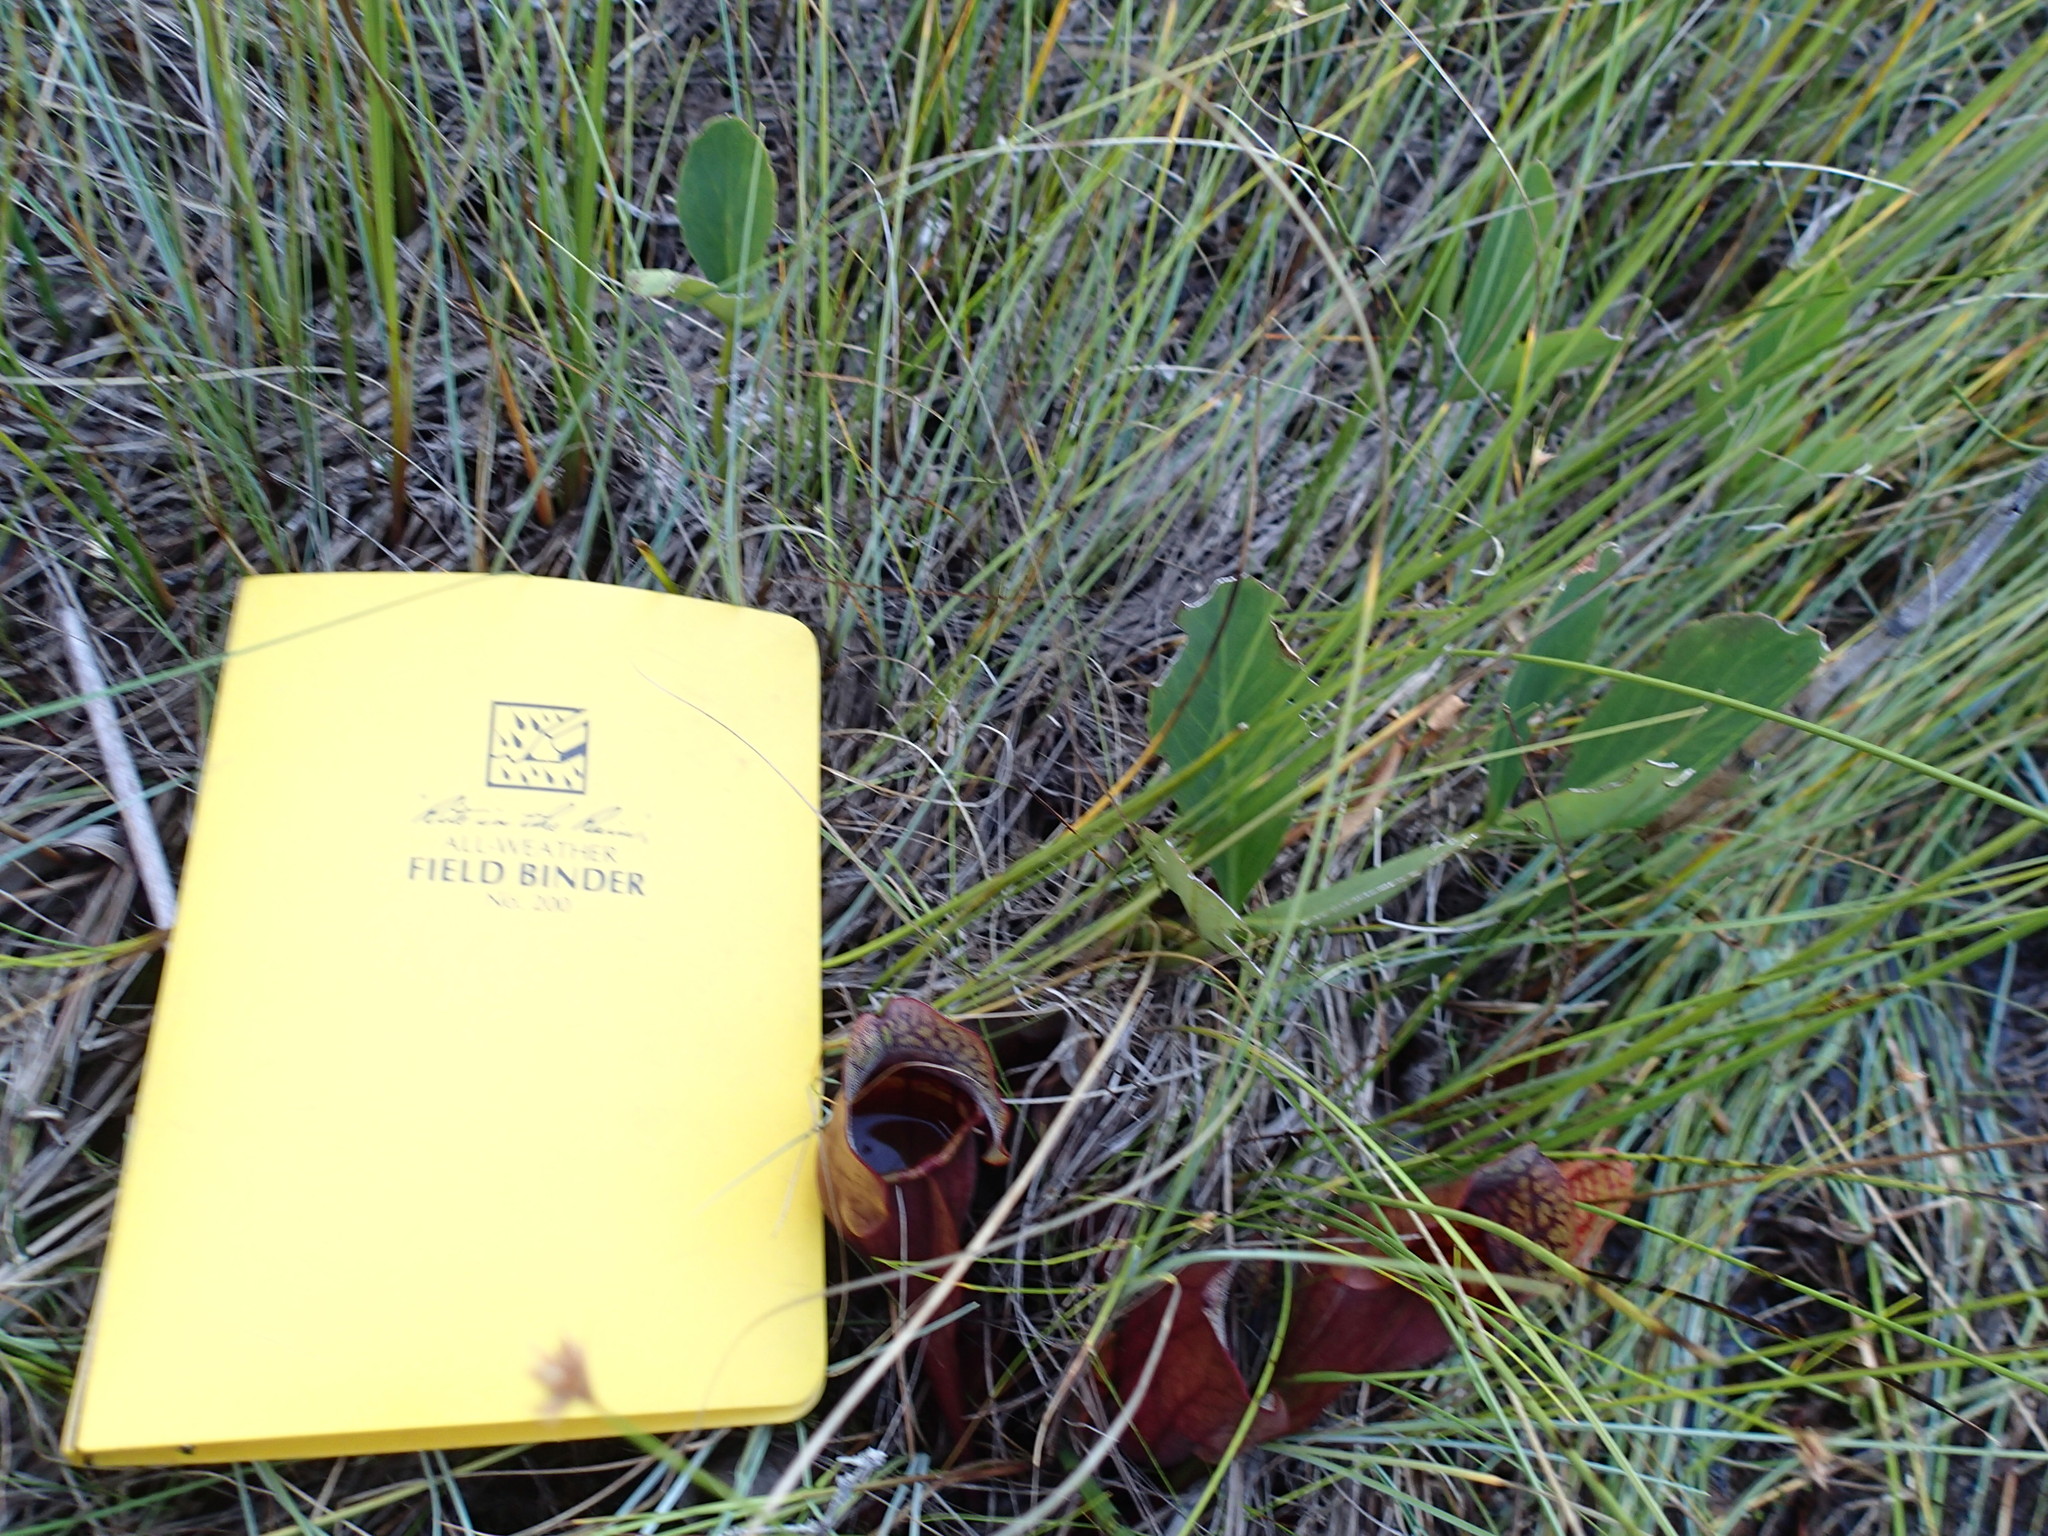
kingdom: Plantae
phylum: Tracheophyta
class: Magnoliopsida
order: Ericales
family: Sarraceniaceae
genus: Sarracenia
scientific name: Sarracenia purpurea
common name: Pitcherplant
